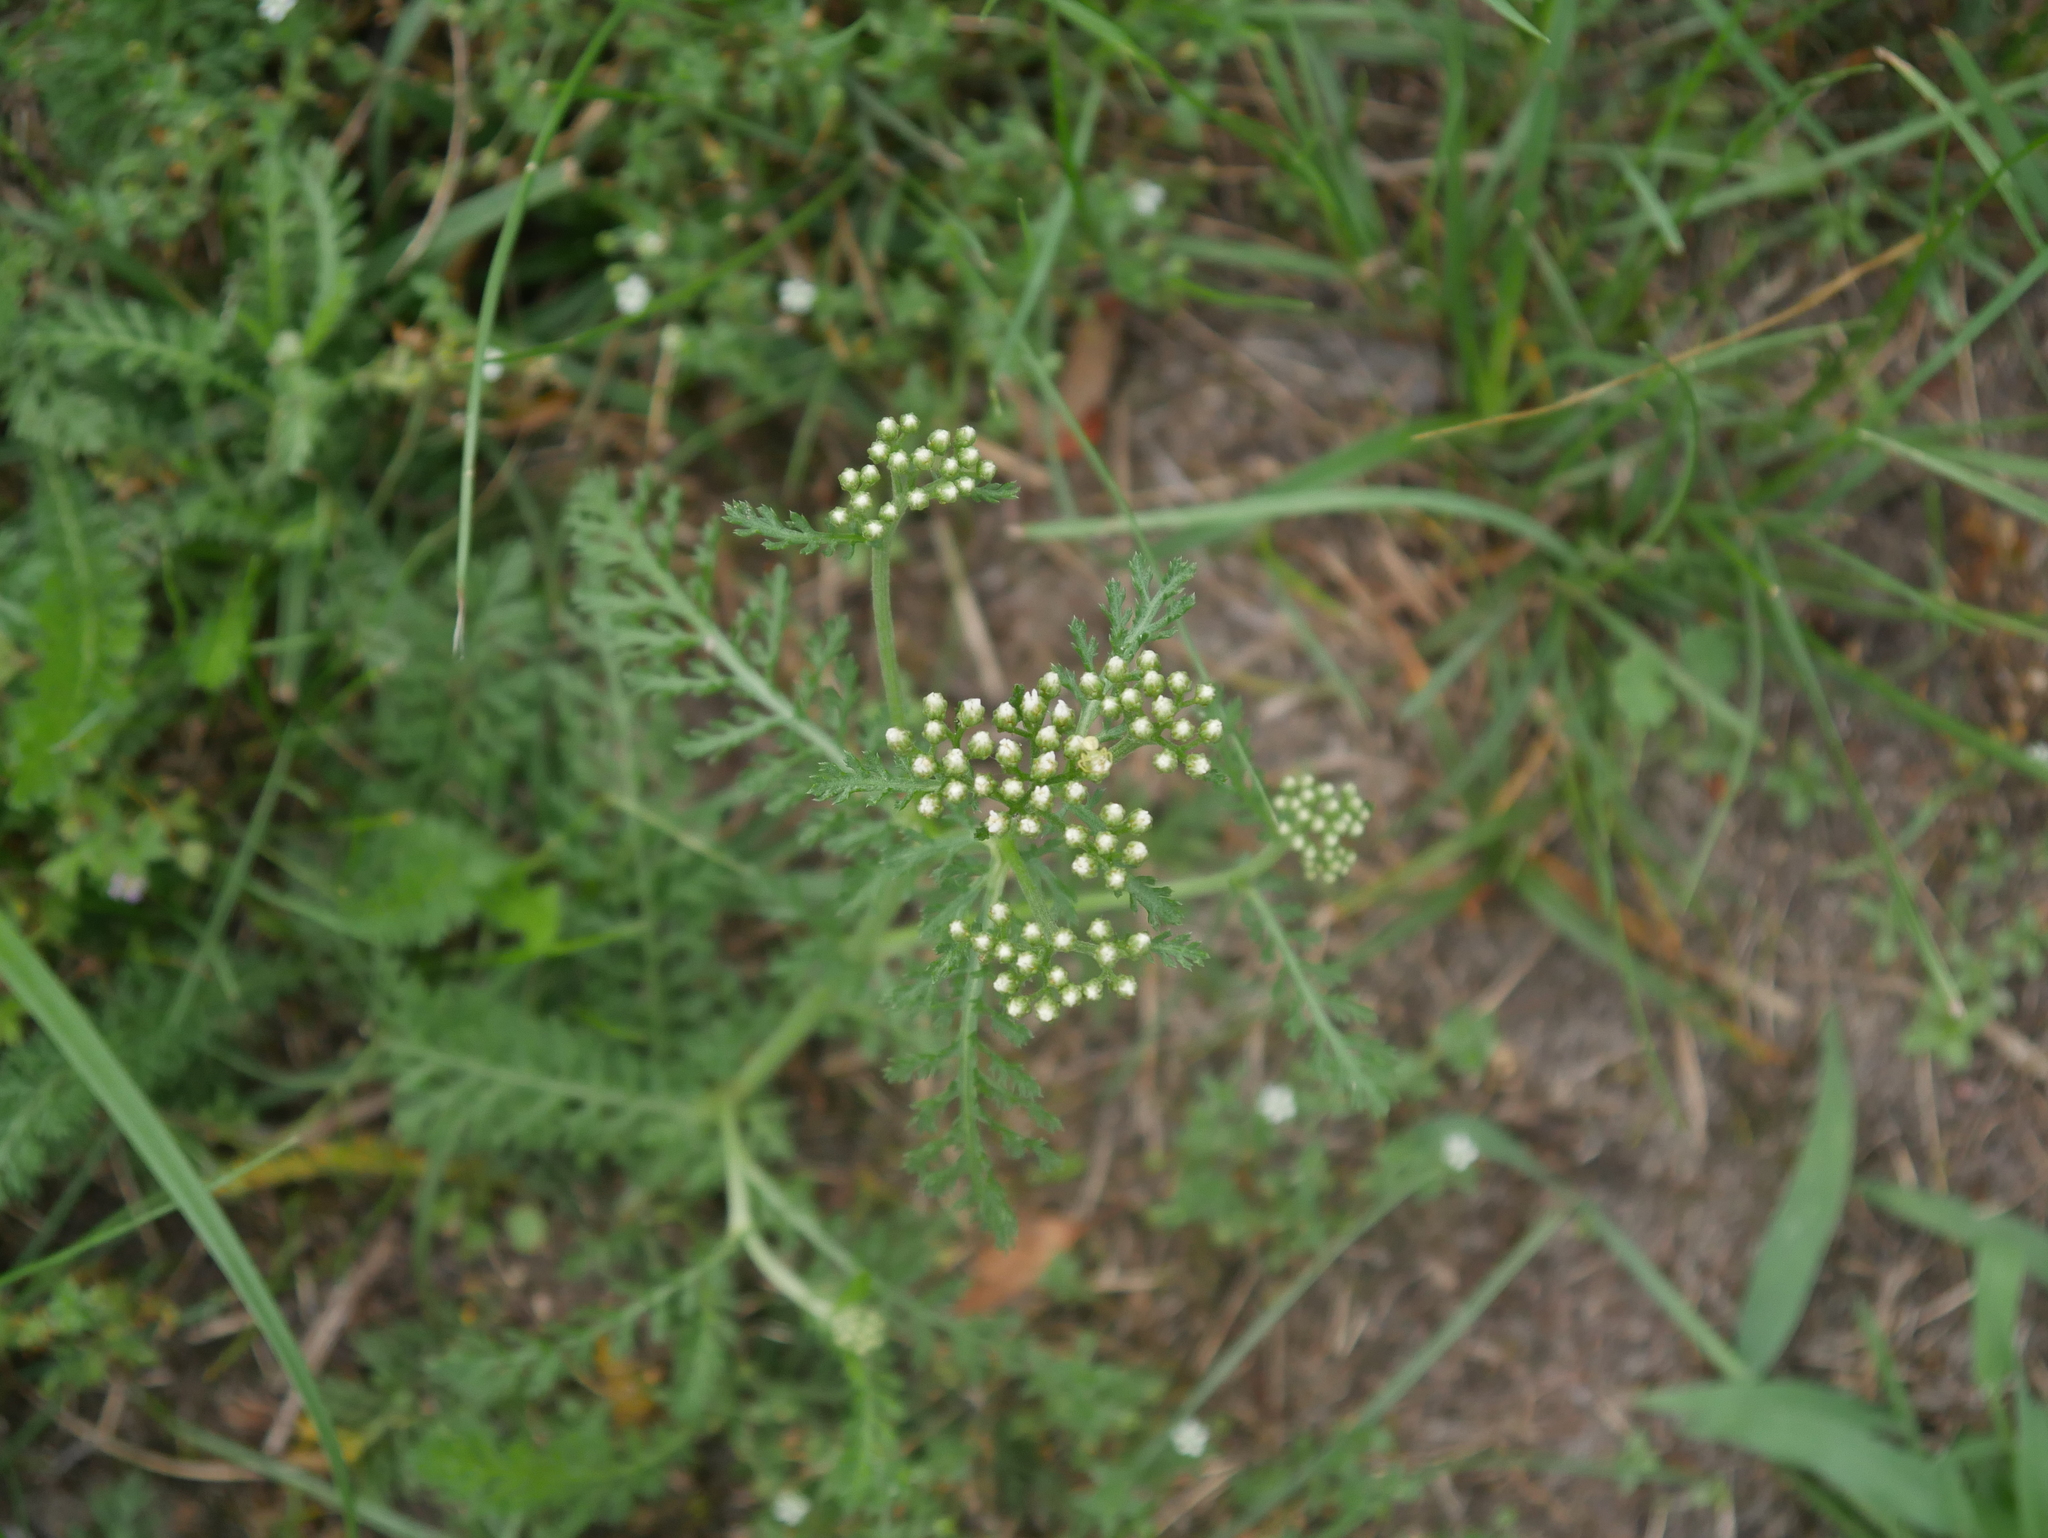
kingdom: Plantae
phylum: Tracheophyta
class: Magnoliopsida
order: Asterales
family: Asteraceae
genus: Achillea
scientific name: Achillea millefolium
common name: Yarrow
